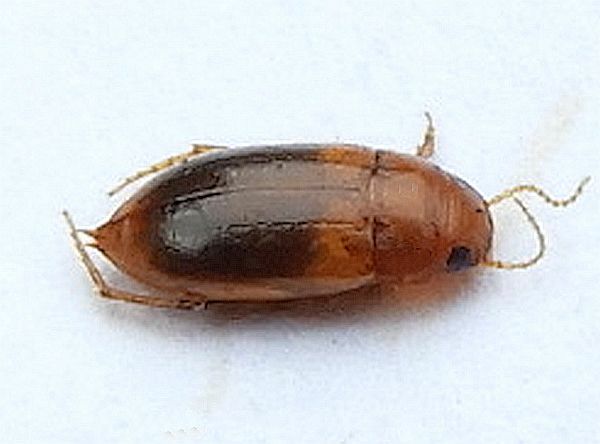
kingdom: Animalia
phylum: Arthropoda
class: Insecta
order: Coleoptera
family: Dytiscidae
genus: Celina
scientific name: Celina hubbelli
